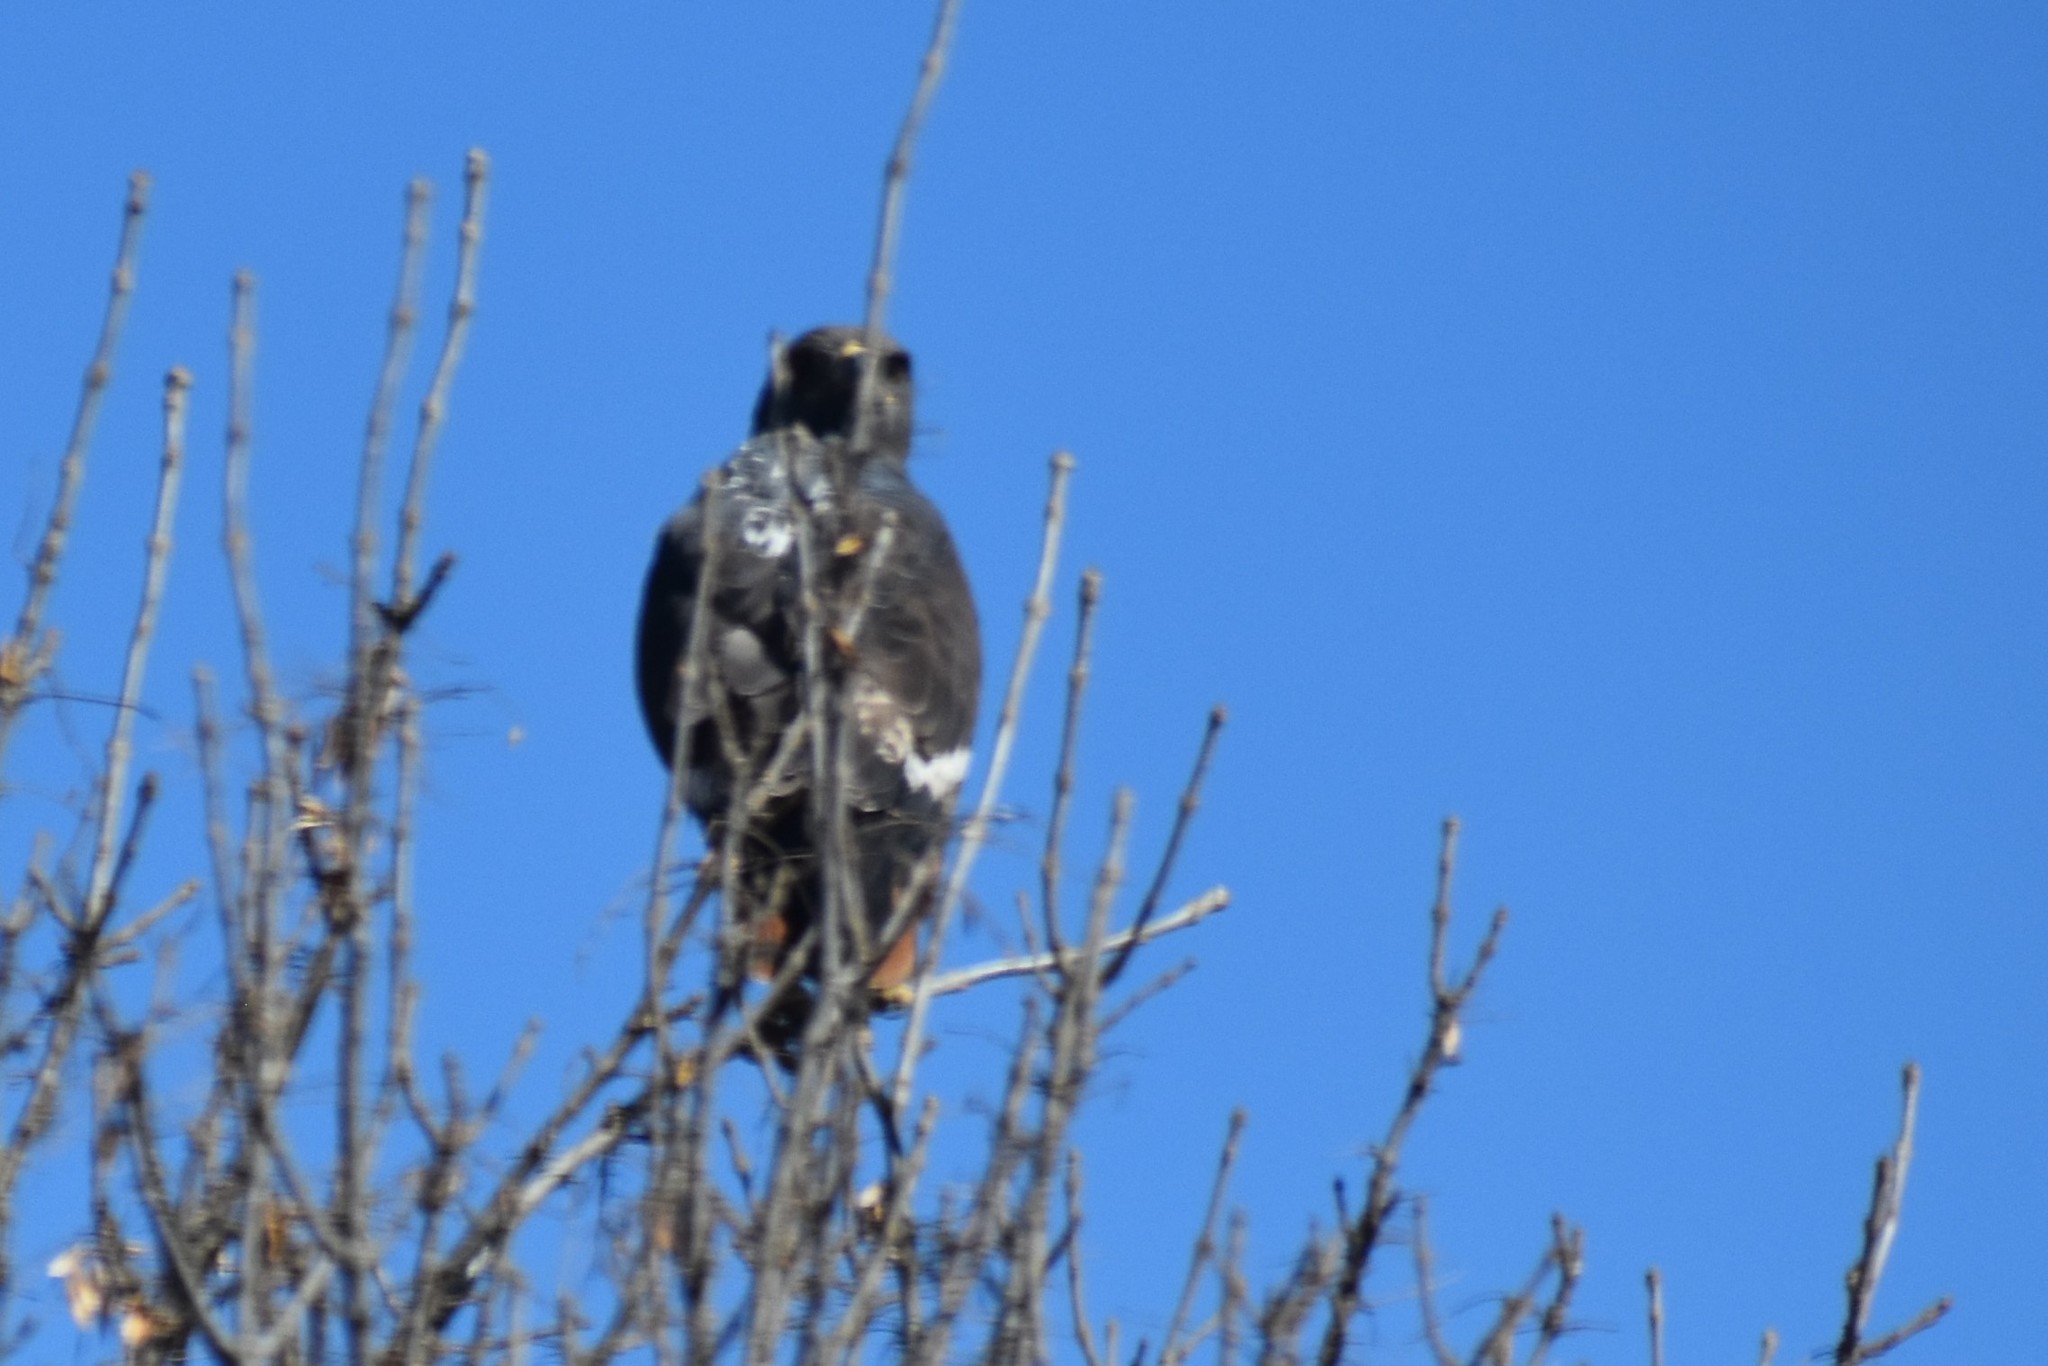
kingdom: Animalia
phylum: Chordata
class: Aves
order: Accipitriformes
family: Accipitridae
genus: Buteo
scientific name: Buteo rufofuscus
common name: Jackal buzzard
